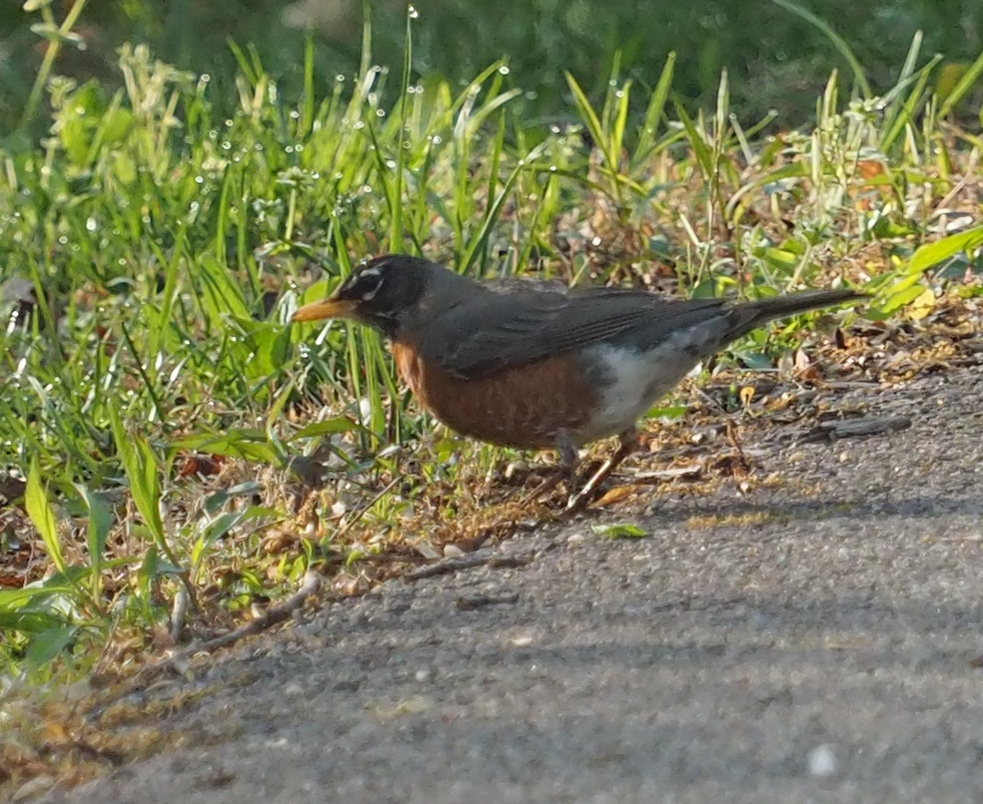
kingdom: Animalia
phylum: Chordata
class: Aves
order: Passeriformes
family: Turdidae
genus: Turdus
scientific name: Turdus migratorius
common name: American robin
